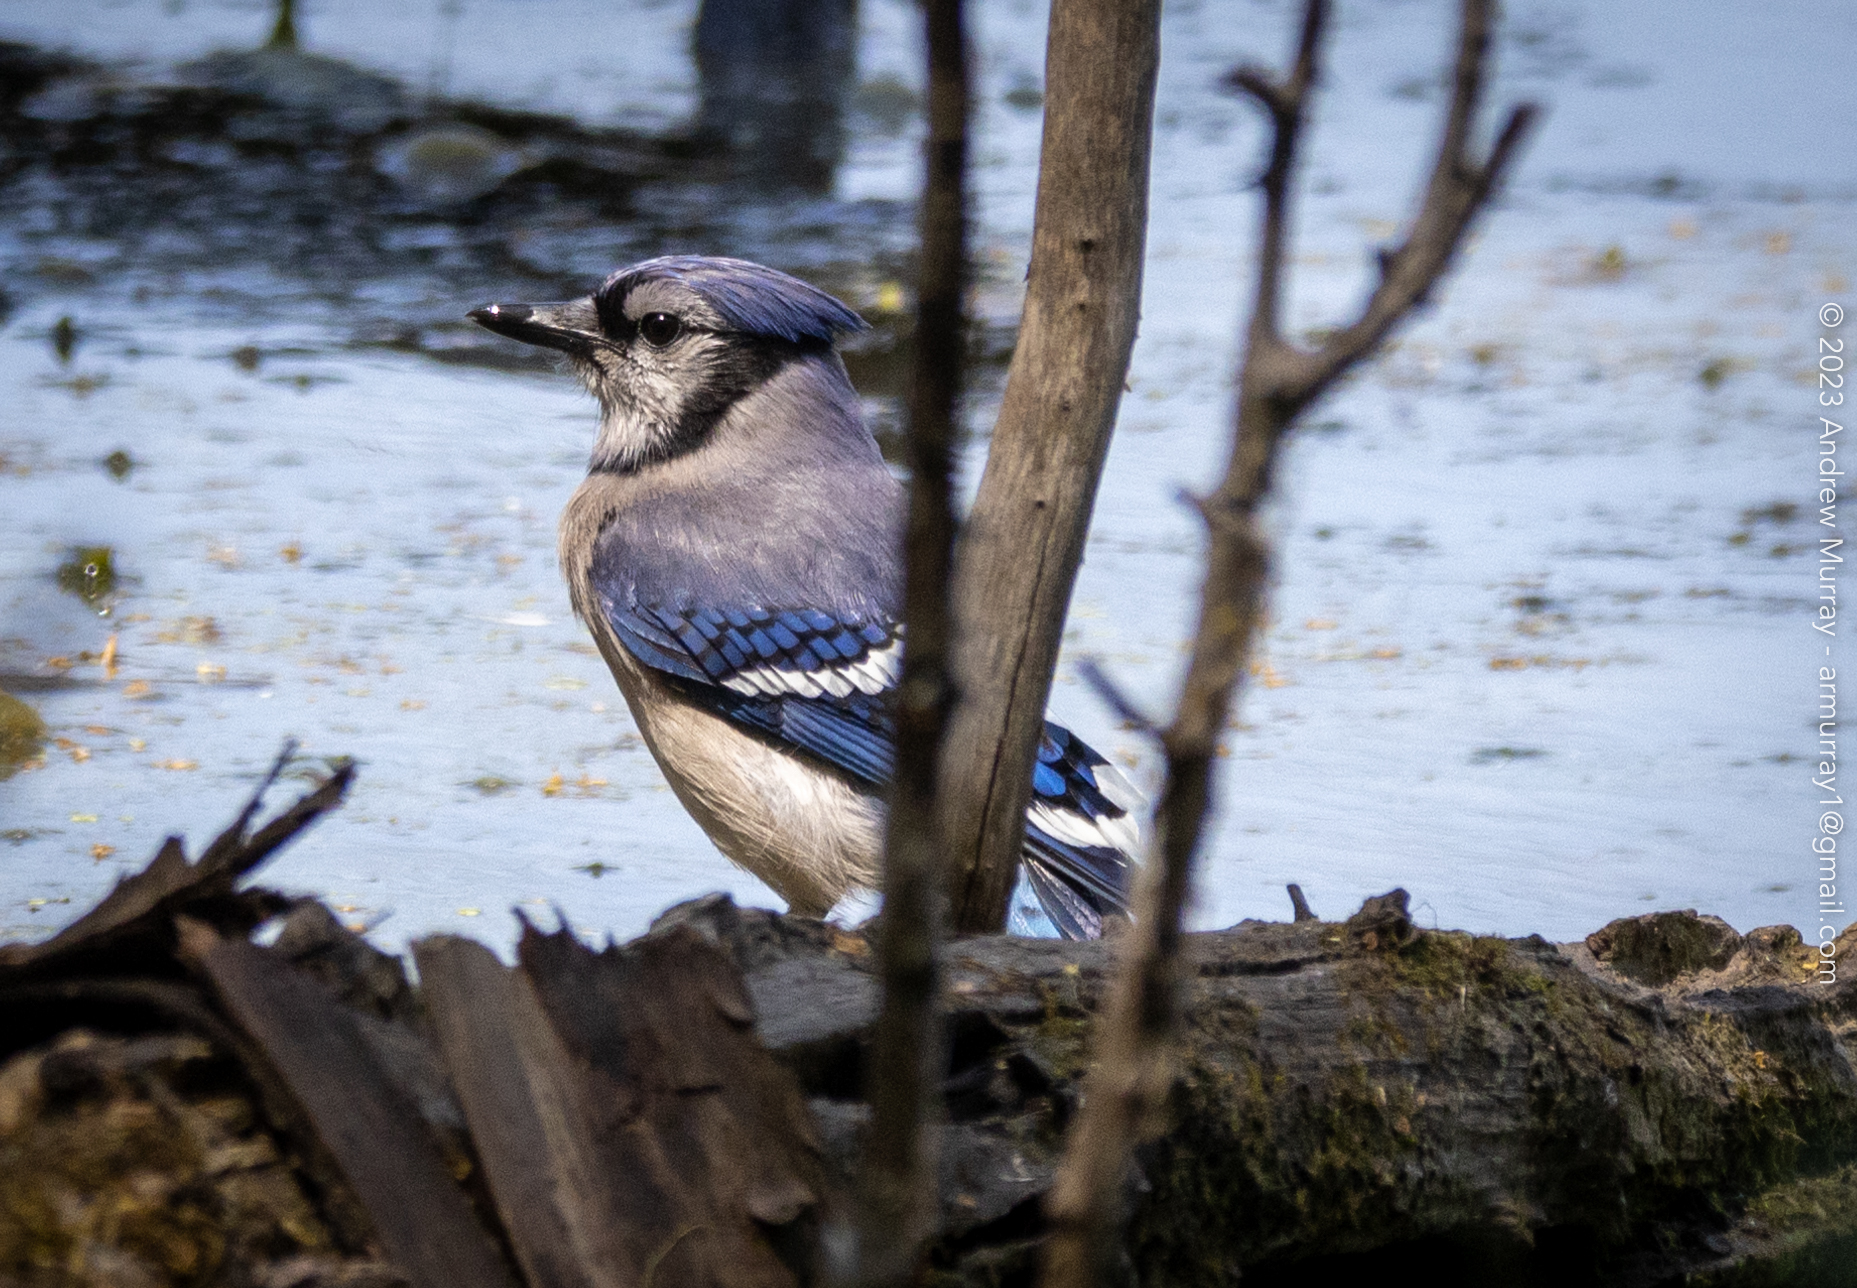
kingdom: Animalia
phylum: Chordata
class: Aves
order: Passeriformes
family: Corvidae
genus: Cyanocitta
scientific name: Cyanocitta cristata
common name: Blue jay
